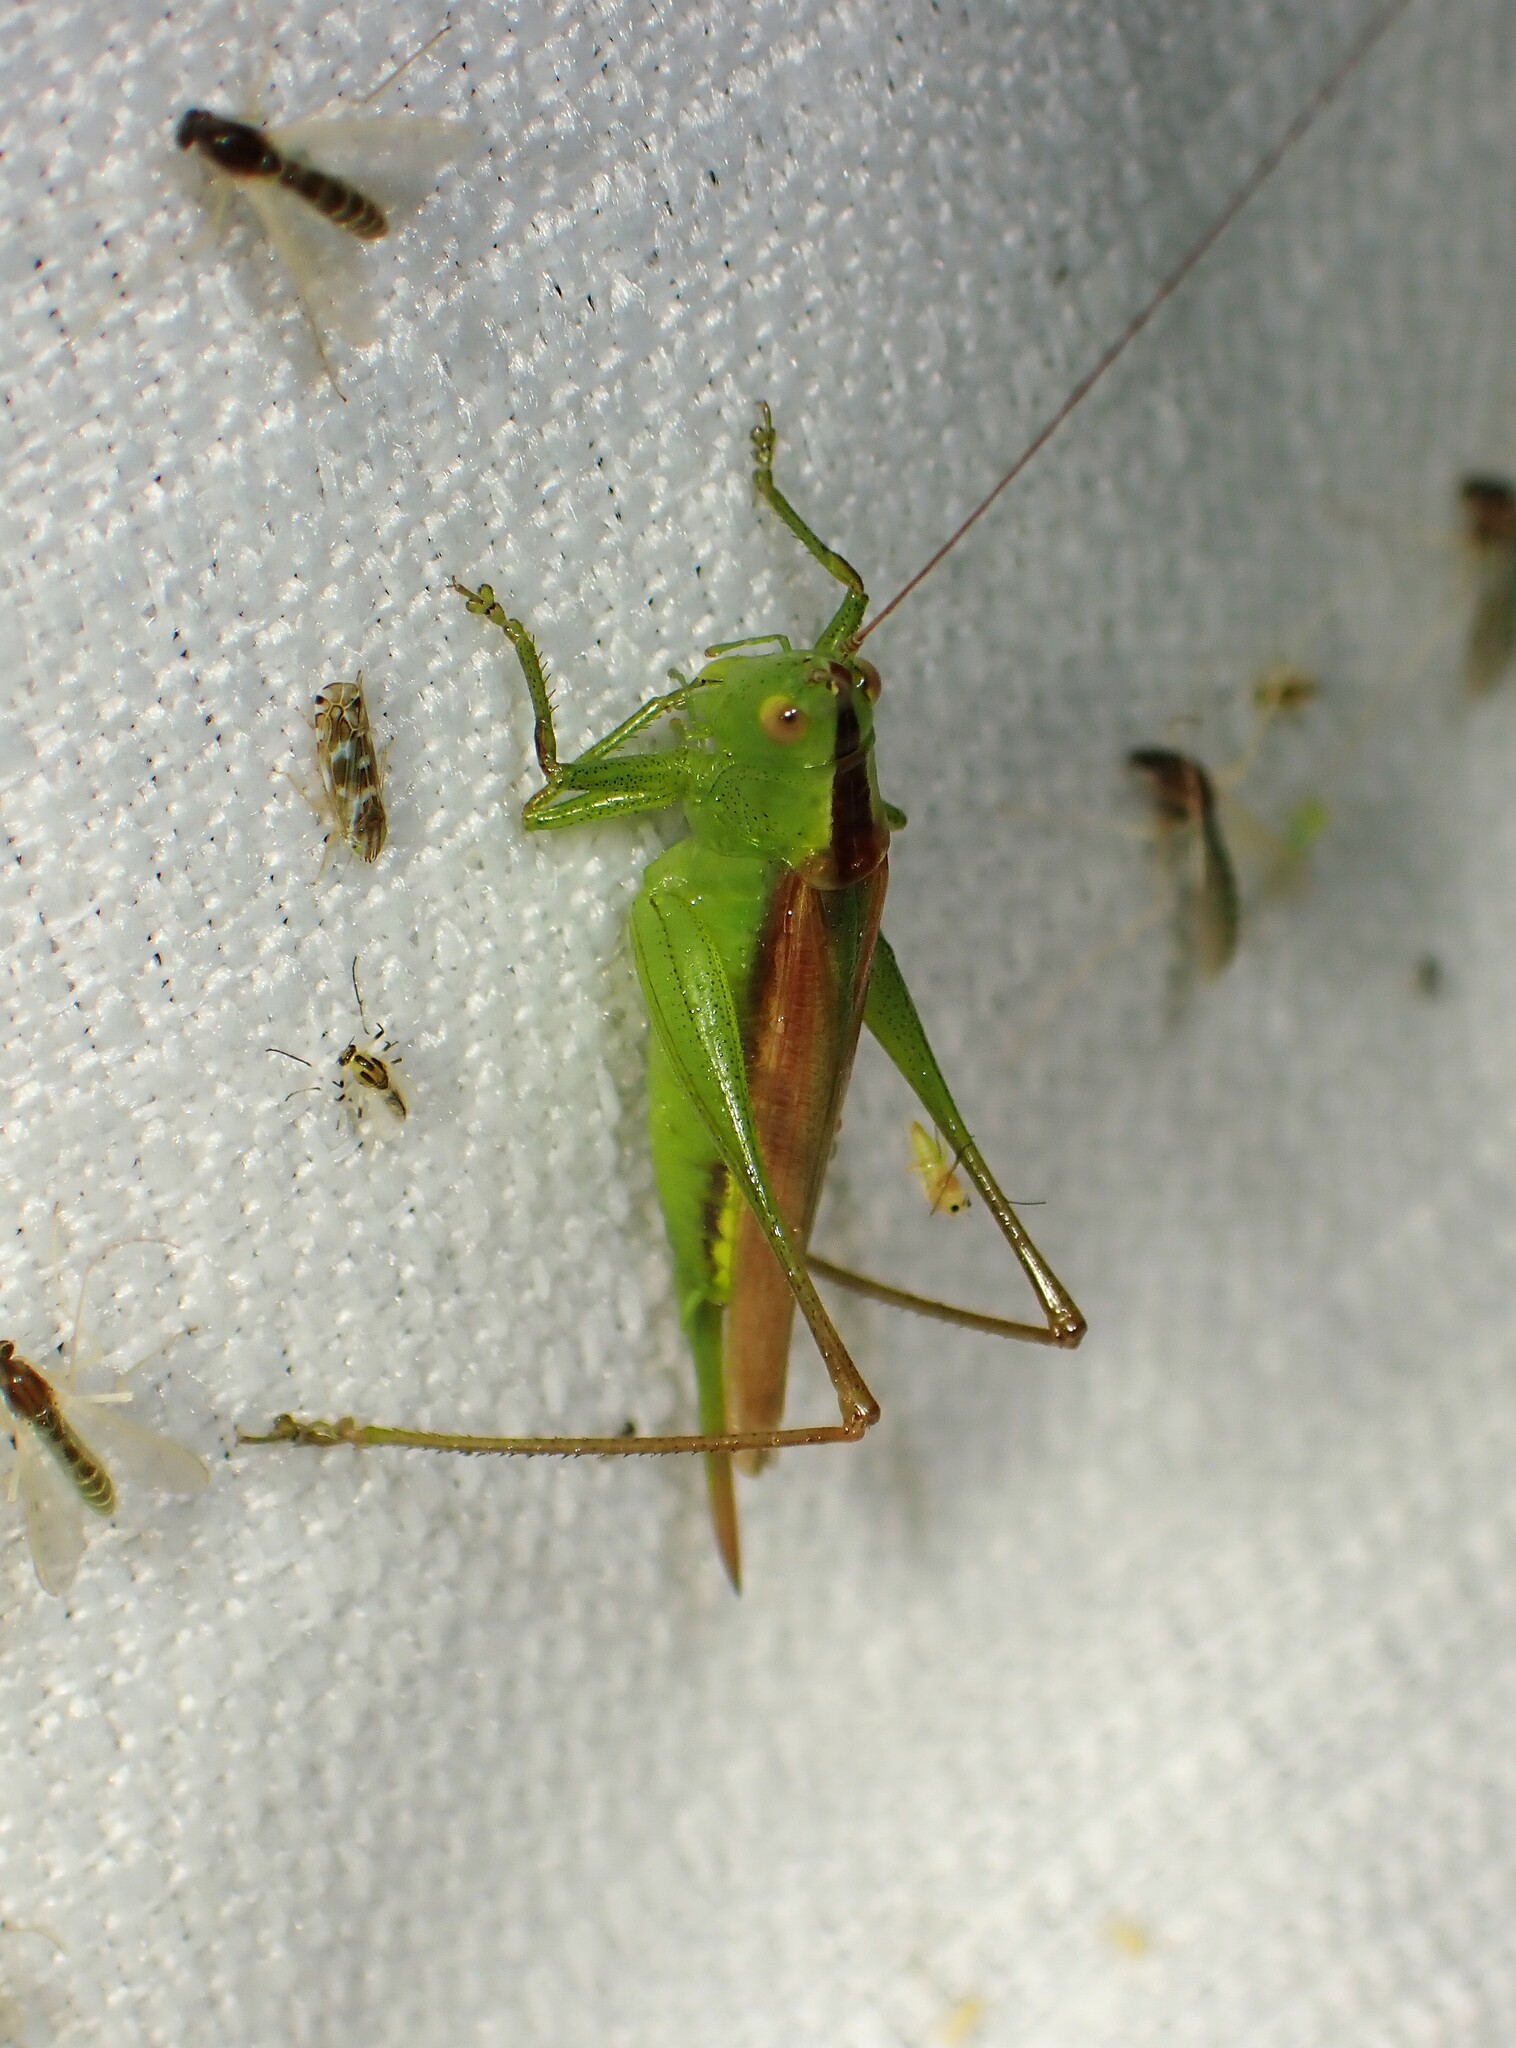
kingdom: Animalia
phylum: Arthropoda
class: Insecta
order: Orthoptera
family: Tettigoniidae
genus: Conocephalus
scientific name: Conocephalus fasciatus
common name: Slender meadow katydid
